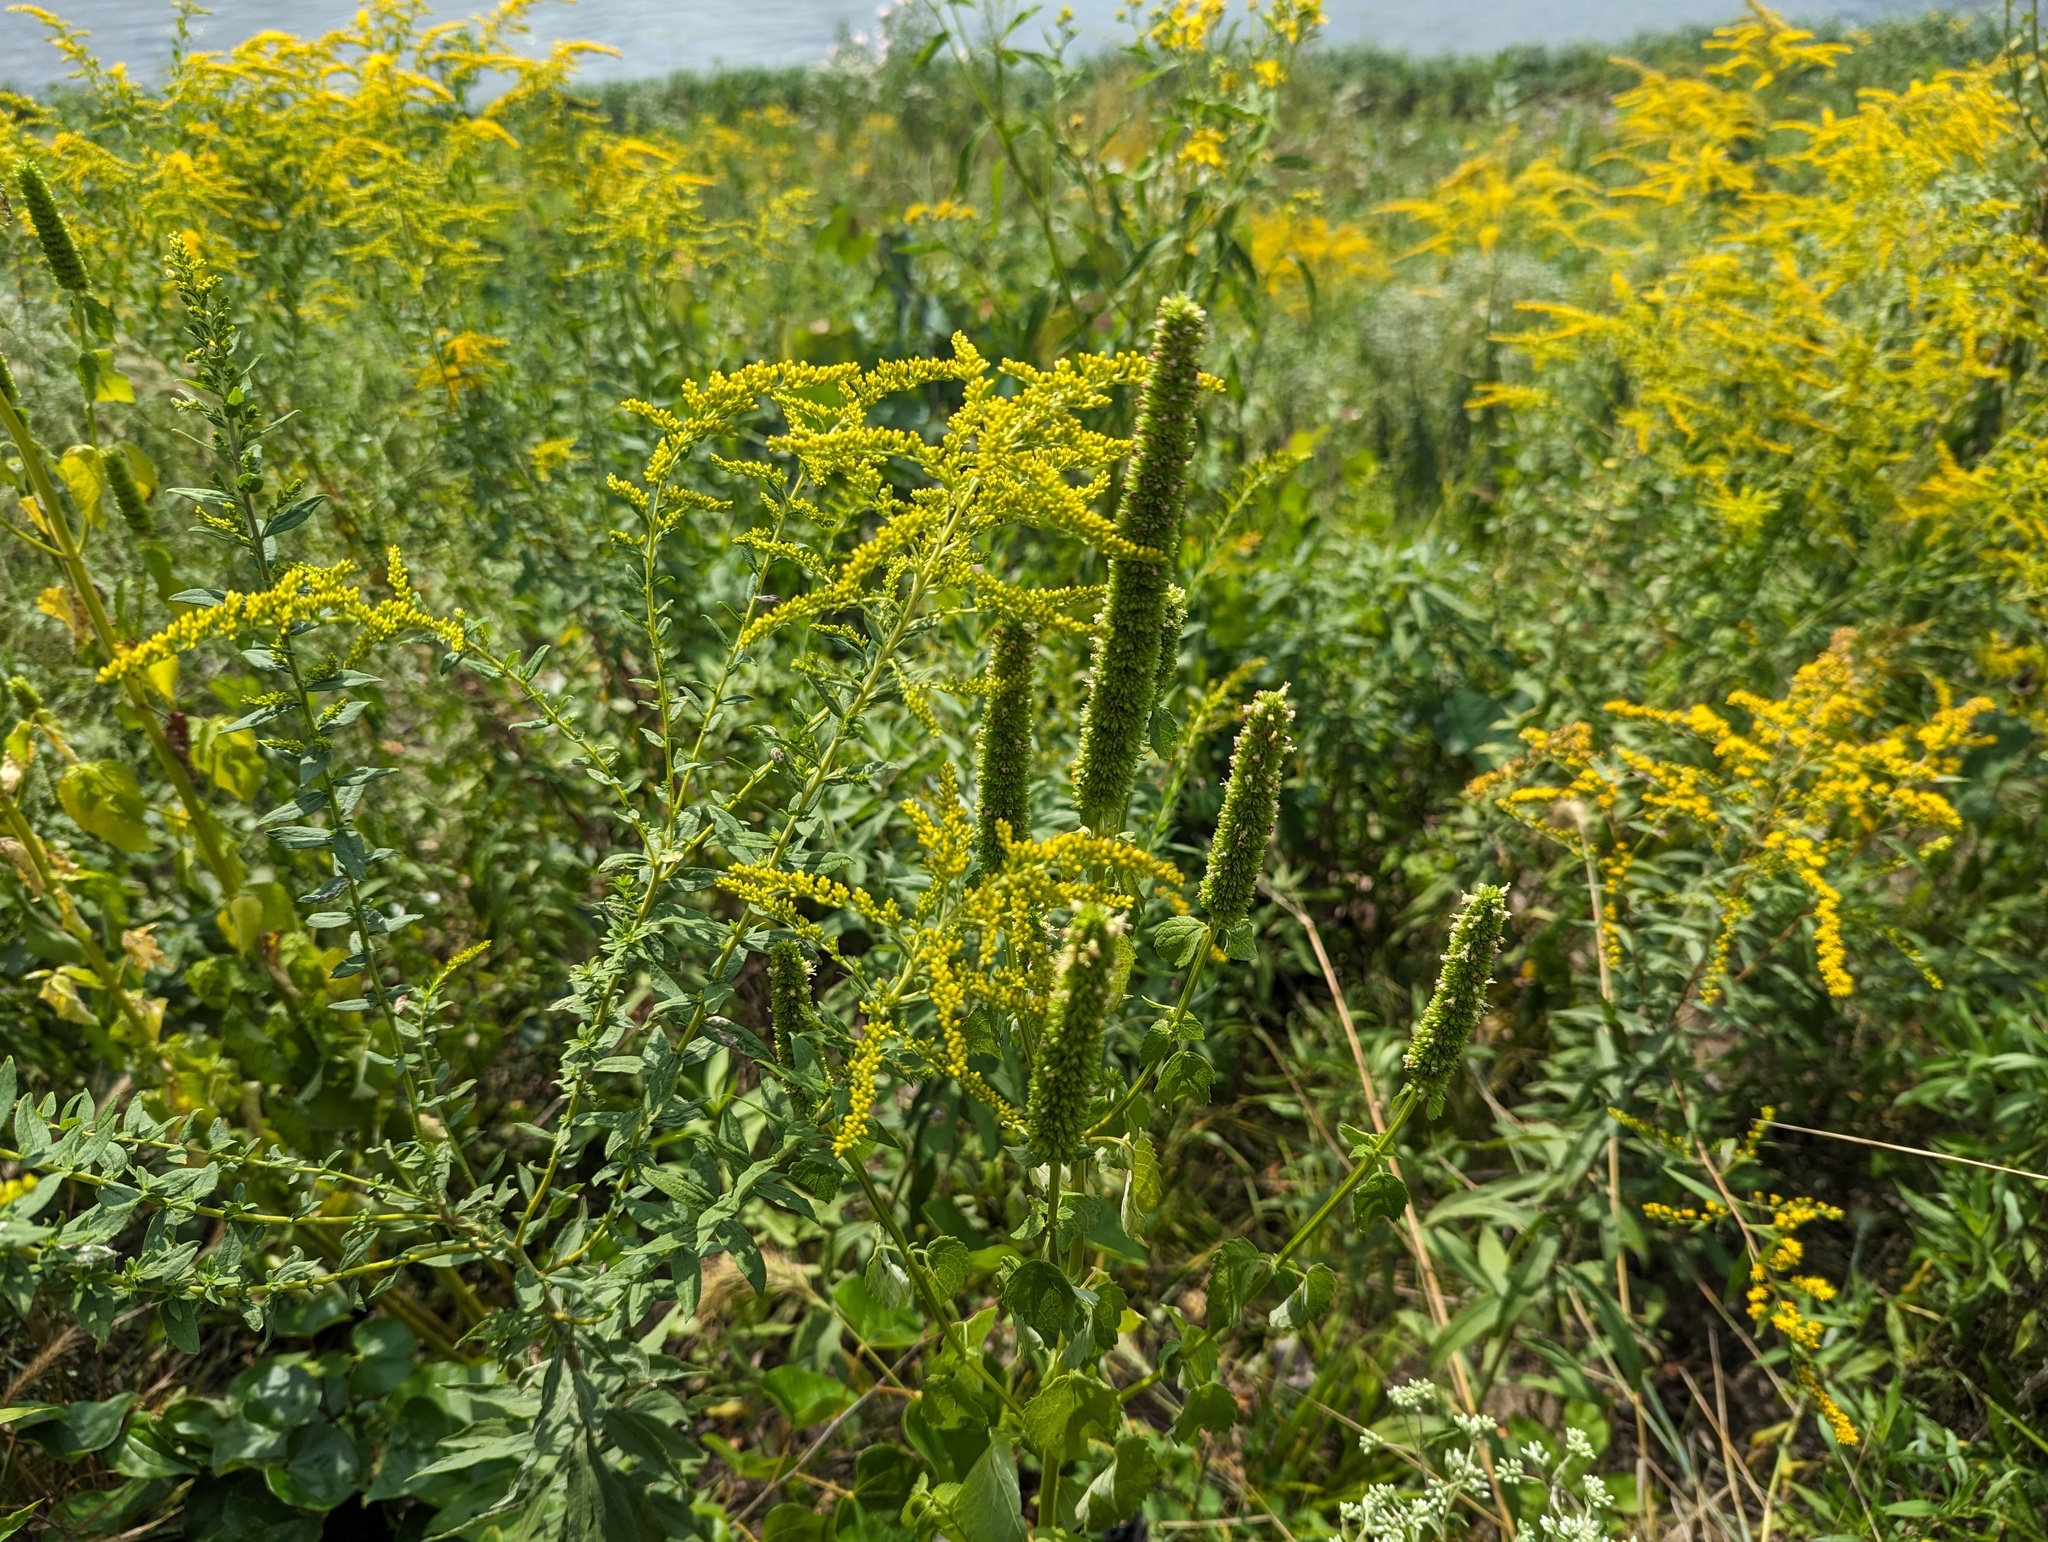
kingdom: Plantae
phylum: Tracheophyta
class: Magnoliopsida
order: Lamiales
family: Lamiaceae
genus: Agastache
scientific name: Agastache nepetoides
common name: Catnip giant hyssop
